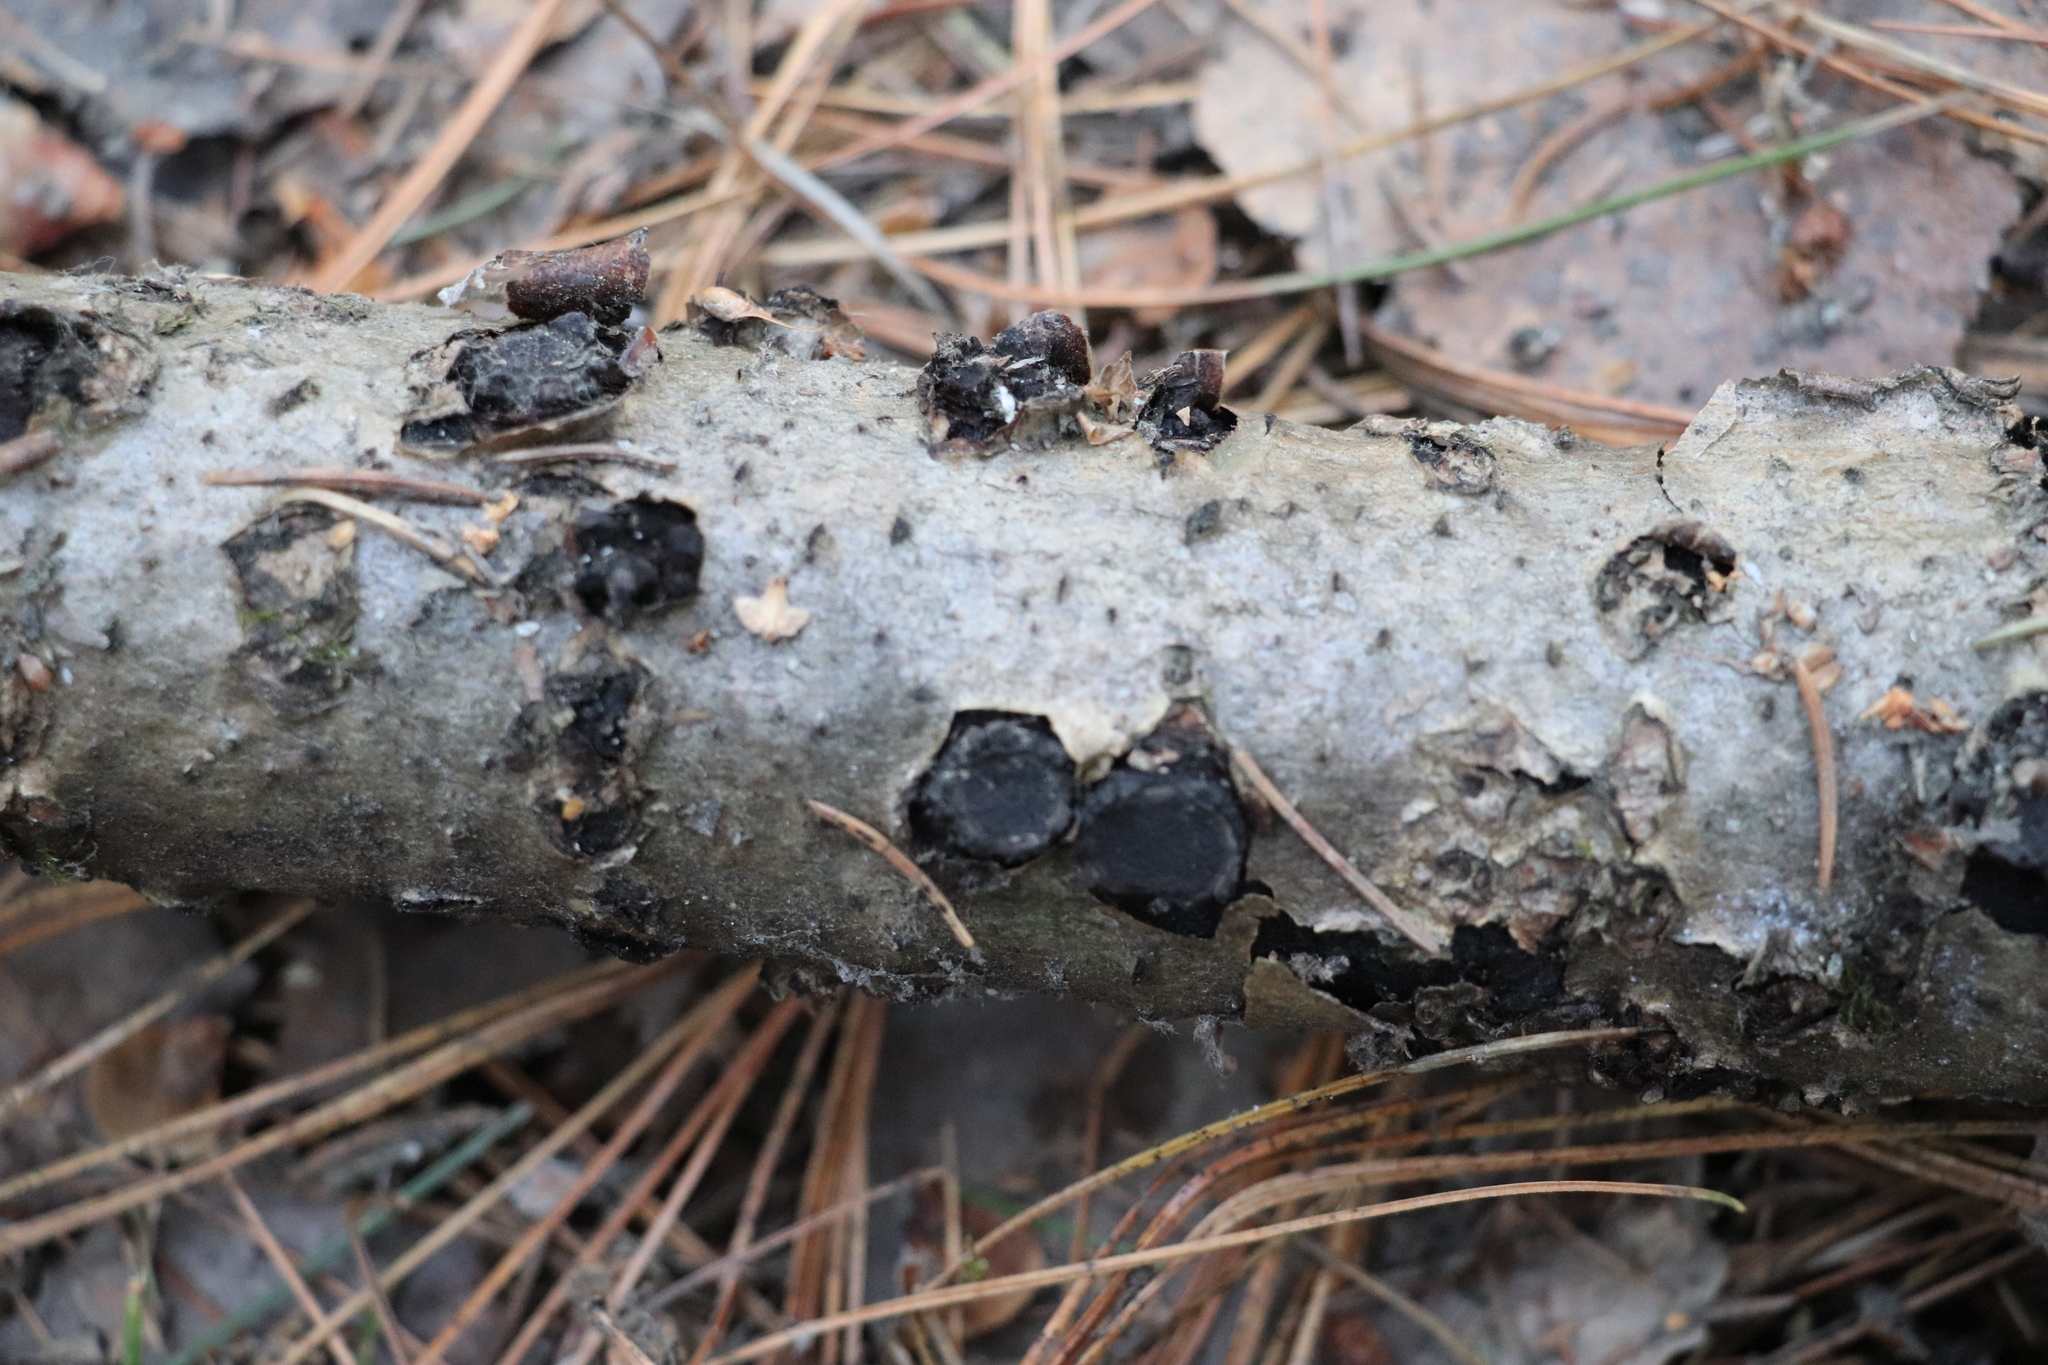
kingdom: Fungi
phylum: Ascomycota
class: Sordariomycetes
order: Xylariales
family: Graphostromataceae
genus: Biscogniauxia
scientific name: Biscogniauxia repanda
